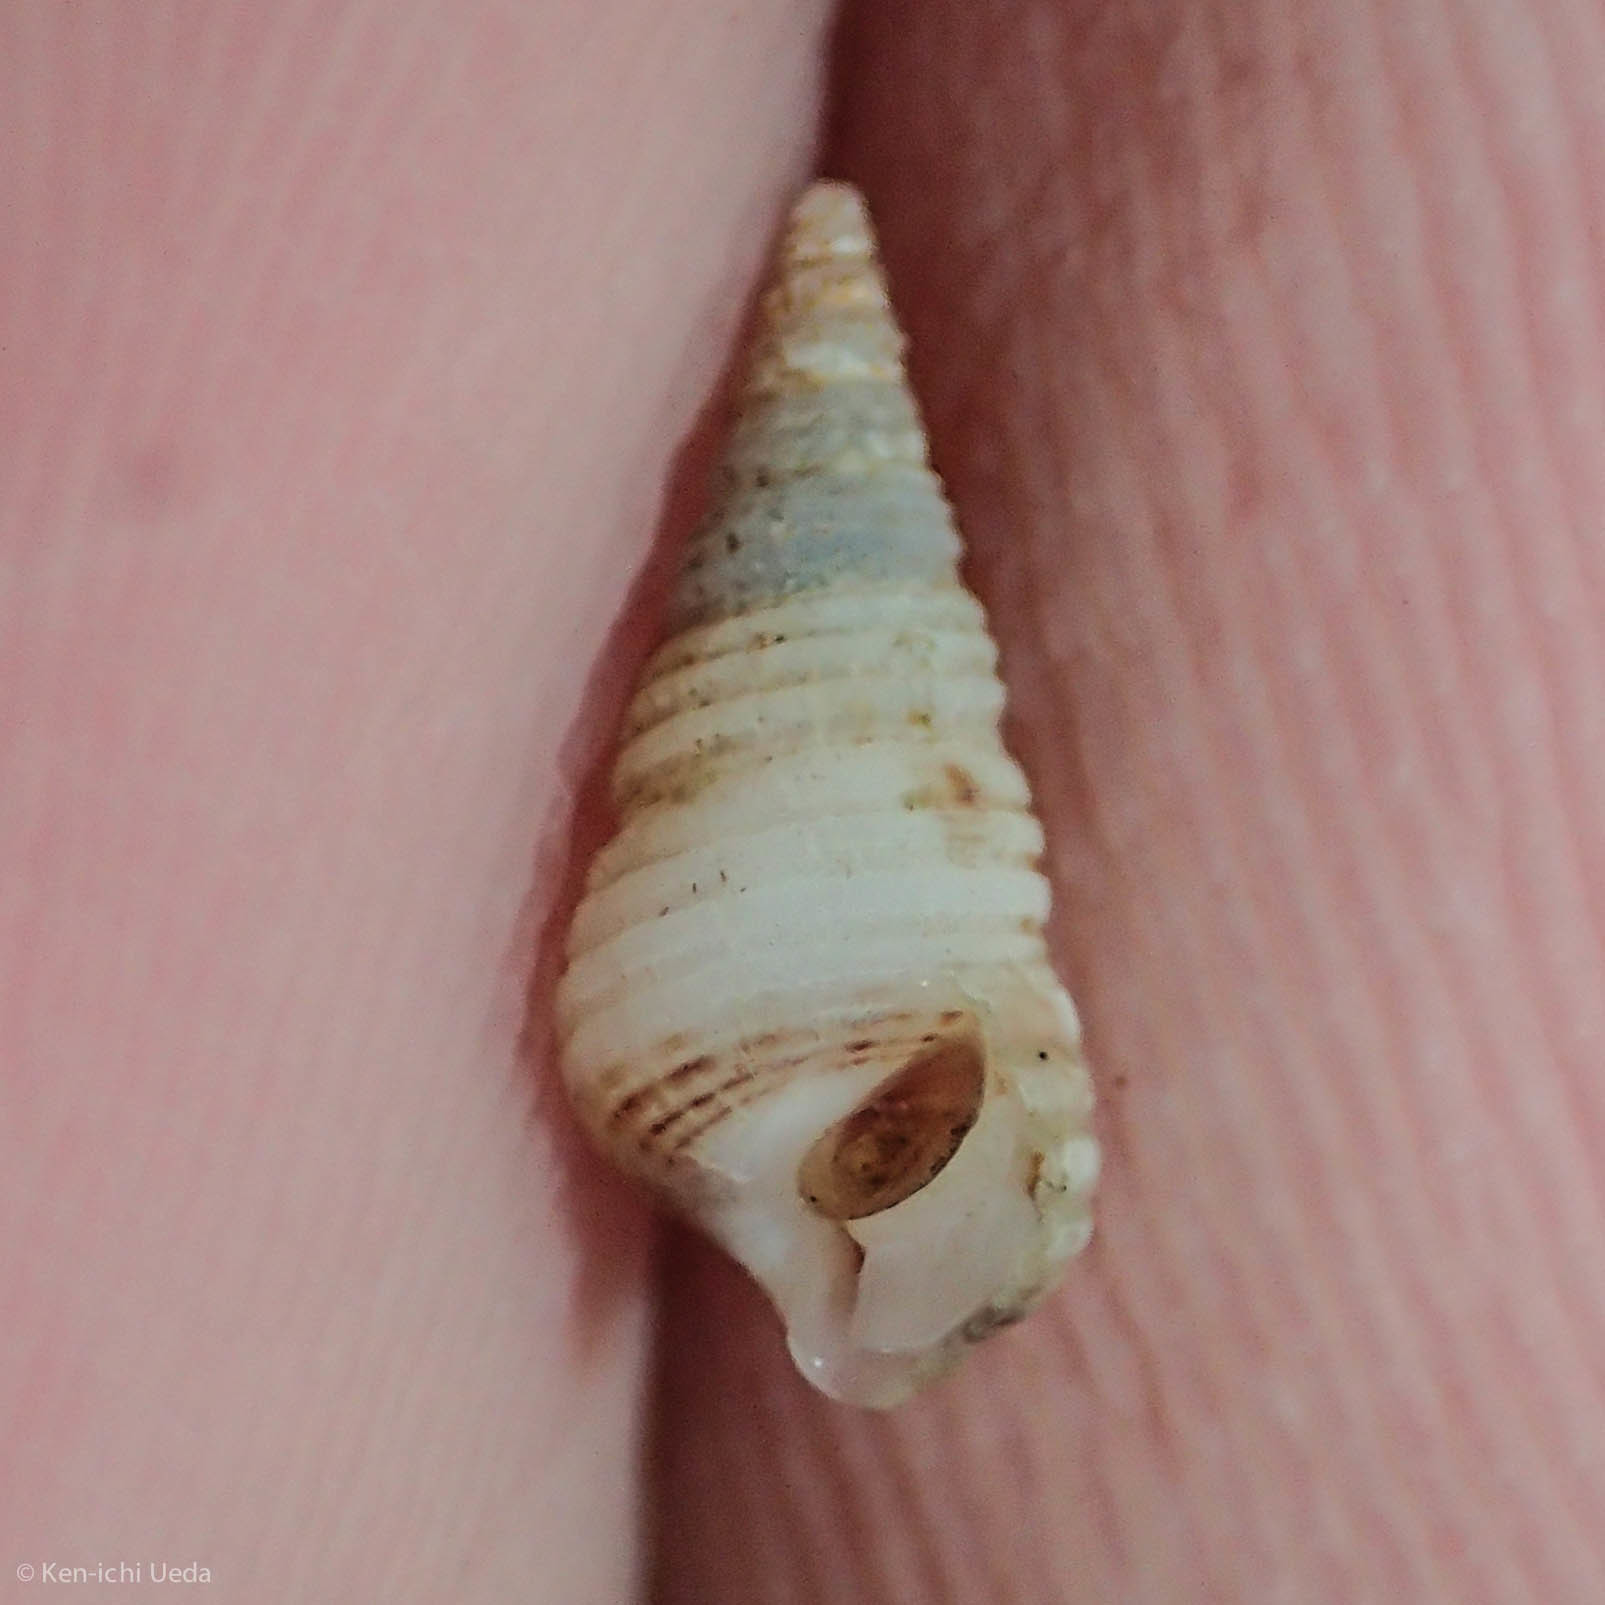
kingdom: Animalia
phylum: Mollusca
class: Gastropoda
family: Cerithiidae
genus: Neostylidium
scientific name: Neostylidium eschrichtii
